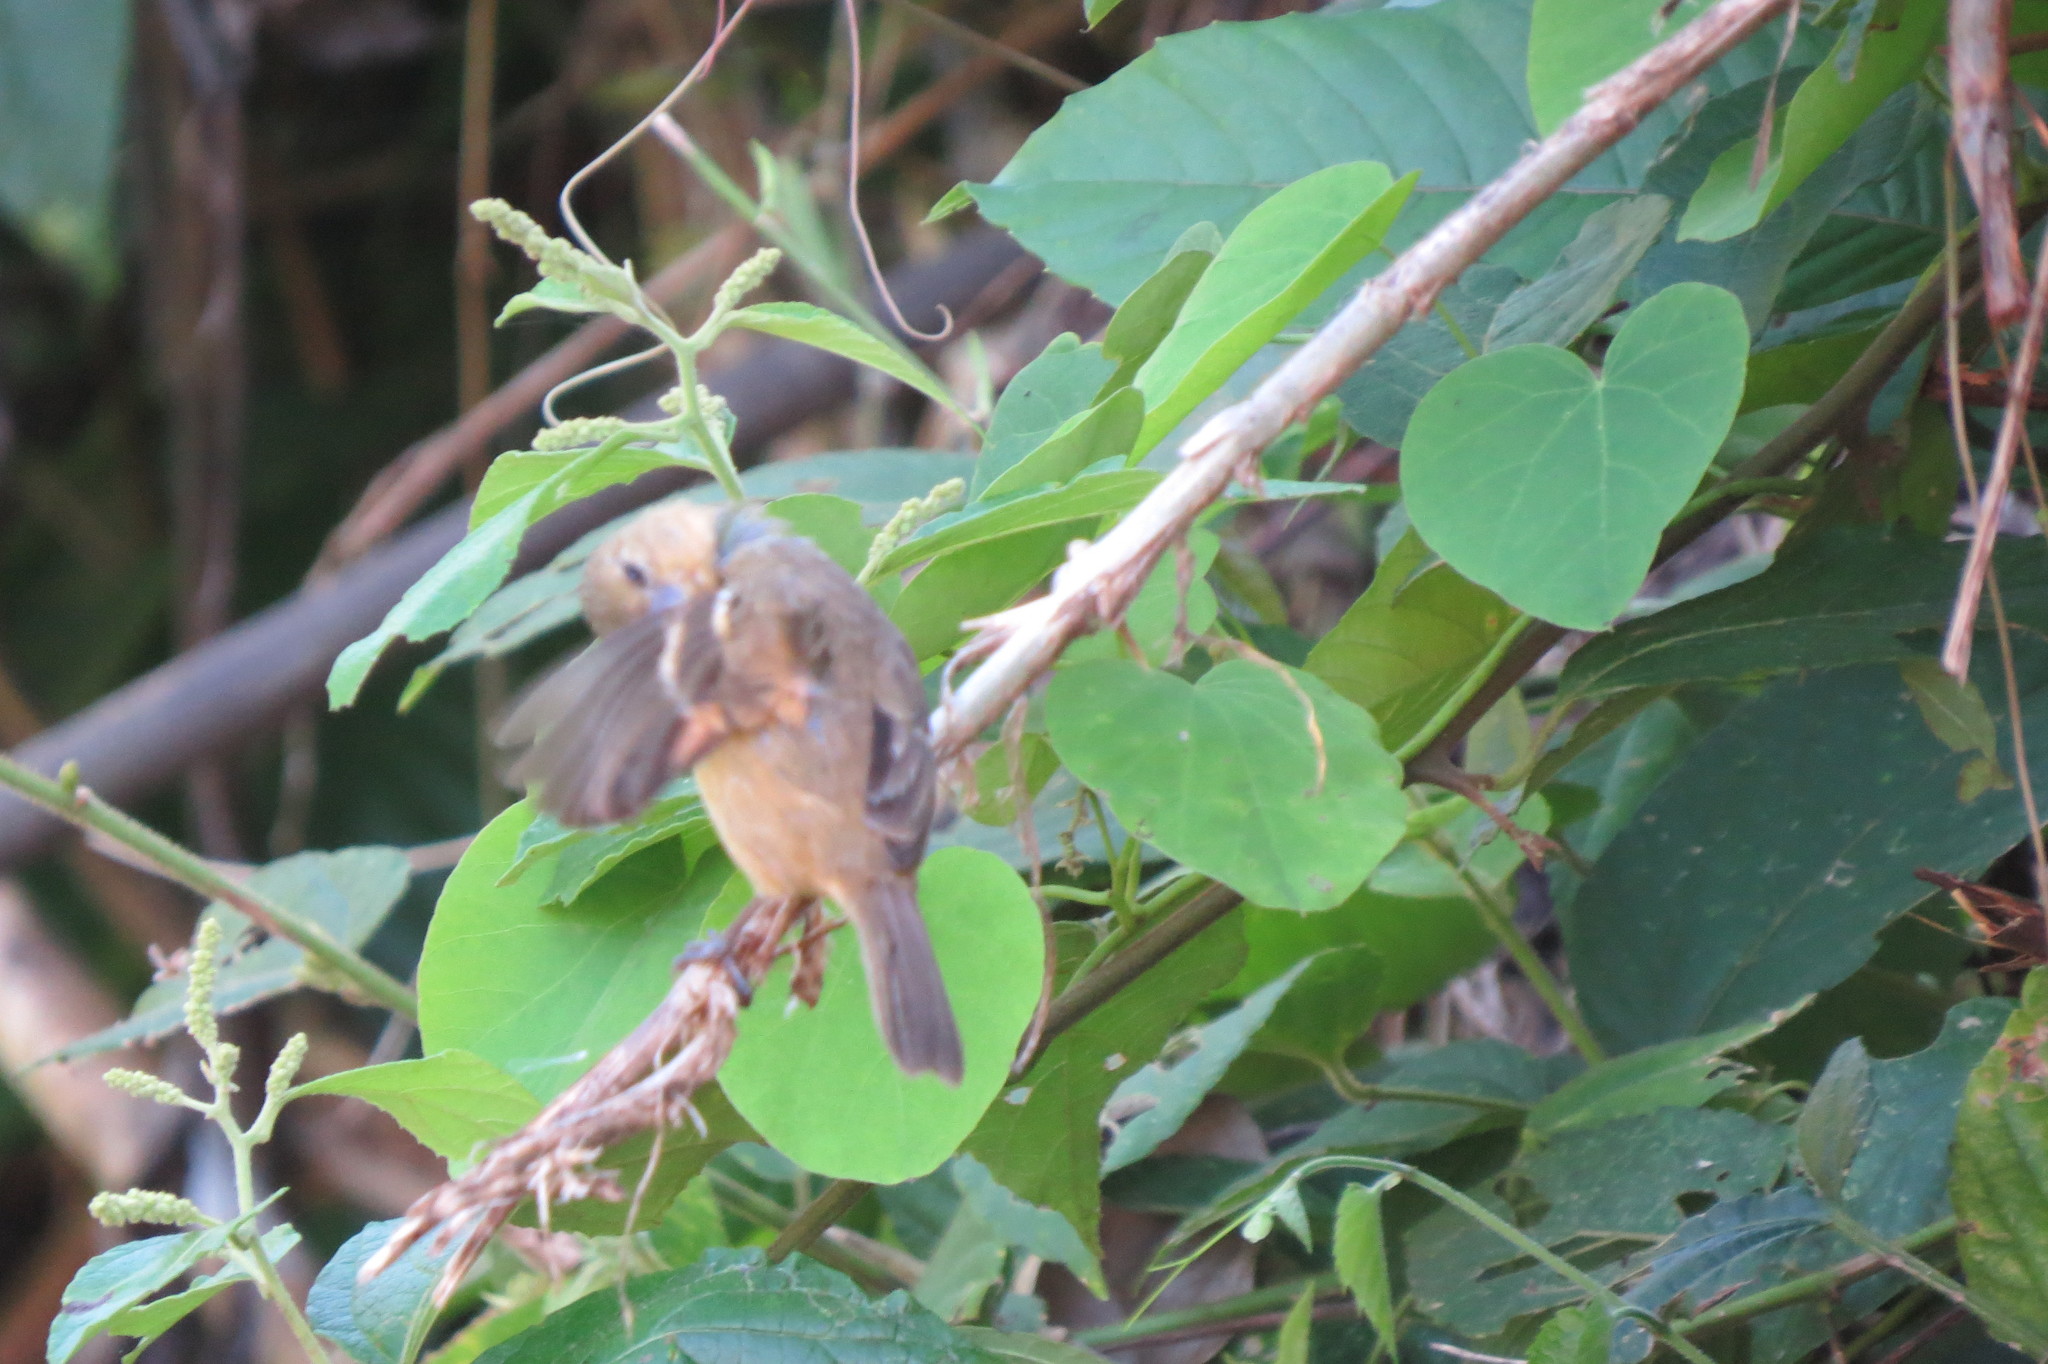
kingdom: Animalia
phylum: Chordata
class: Aves
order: Passeriformes
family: Thraupidae
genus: Sporophila
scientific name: Sporophila morelleti
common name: Morelet's seedeater
